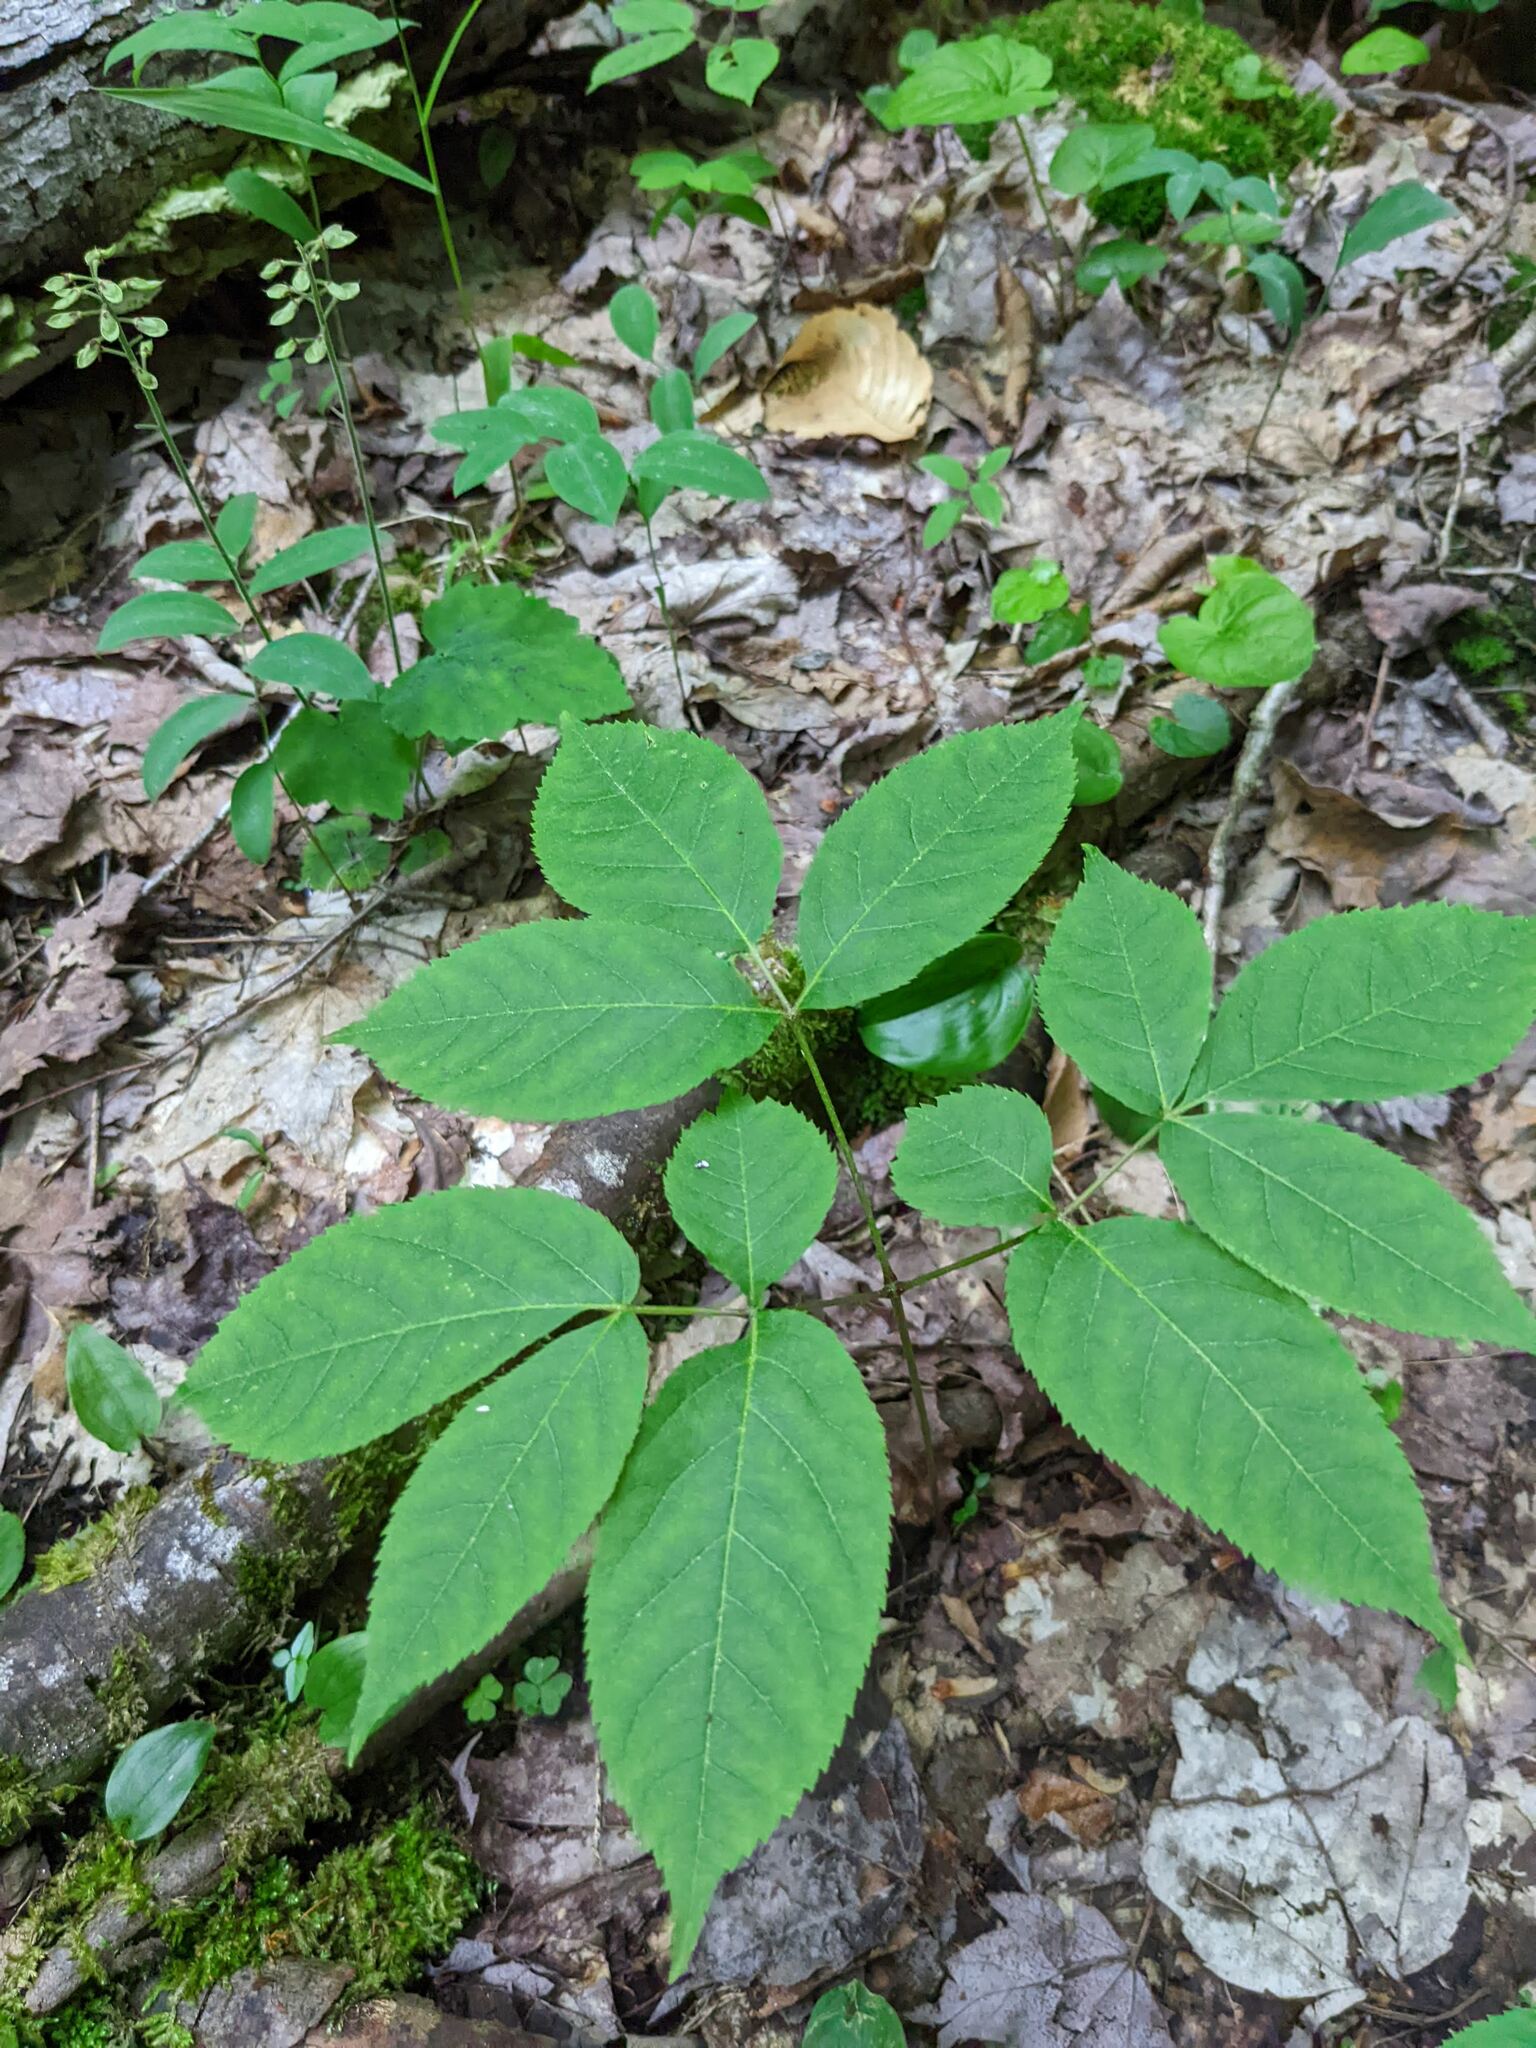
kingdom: Plantae
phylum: Tracheophyta
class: Magnoliopsida
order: Apiales
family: Araliaceae
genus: Aralia
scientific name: Aralia nudicaulis
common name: Wild sarsaparilla
